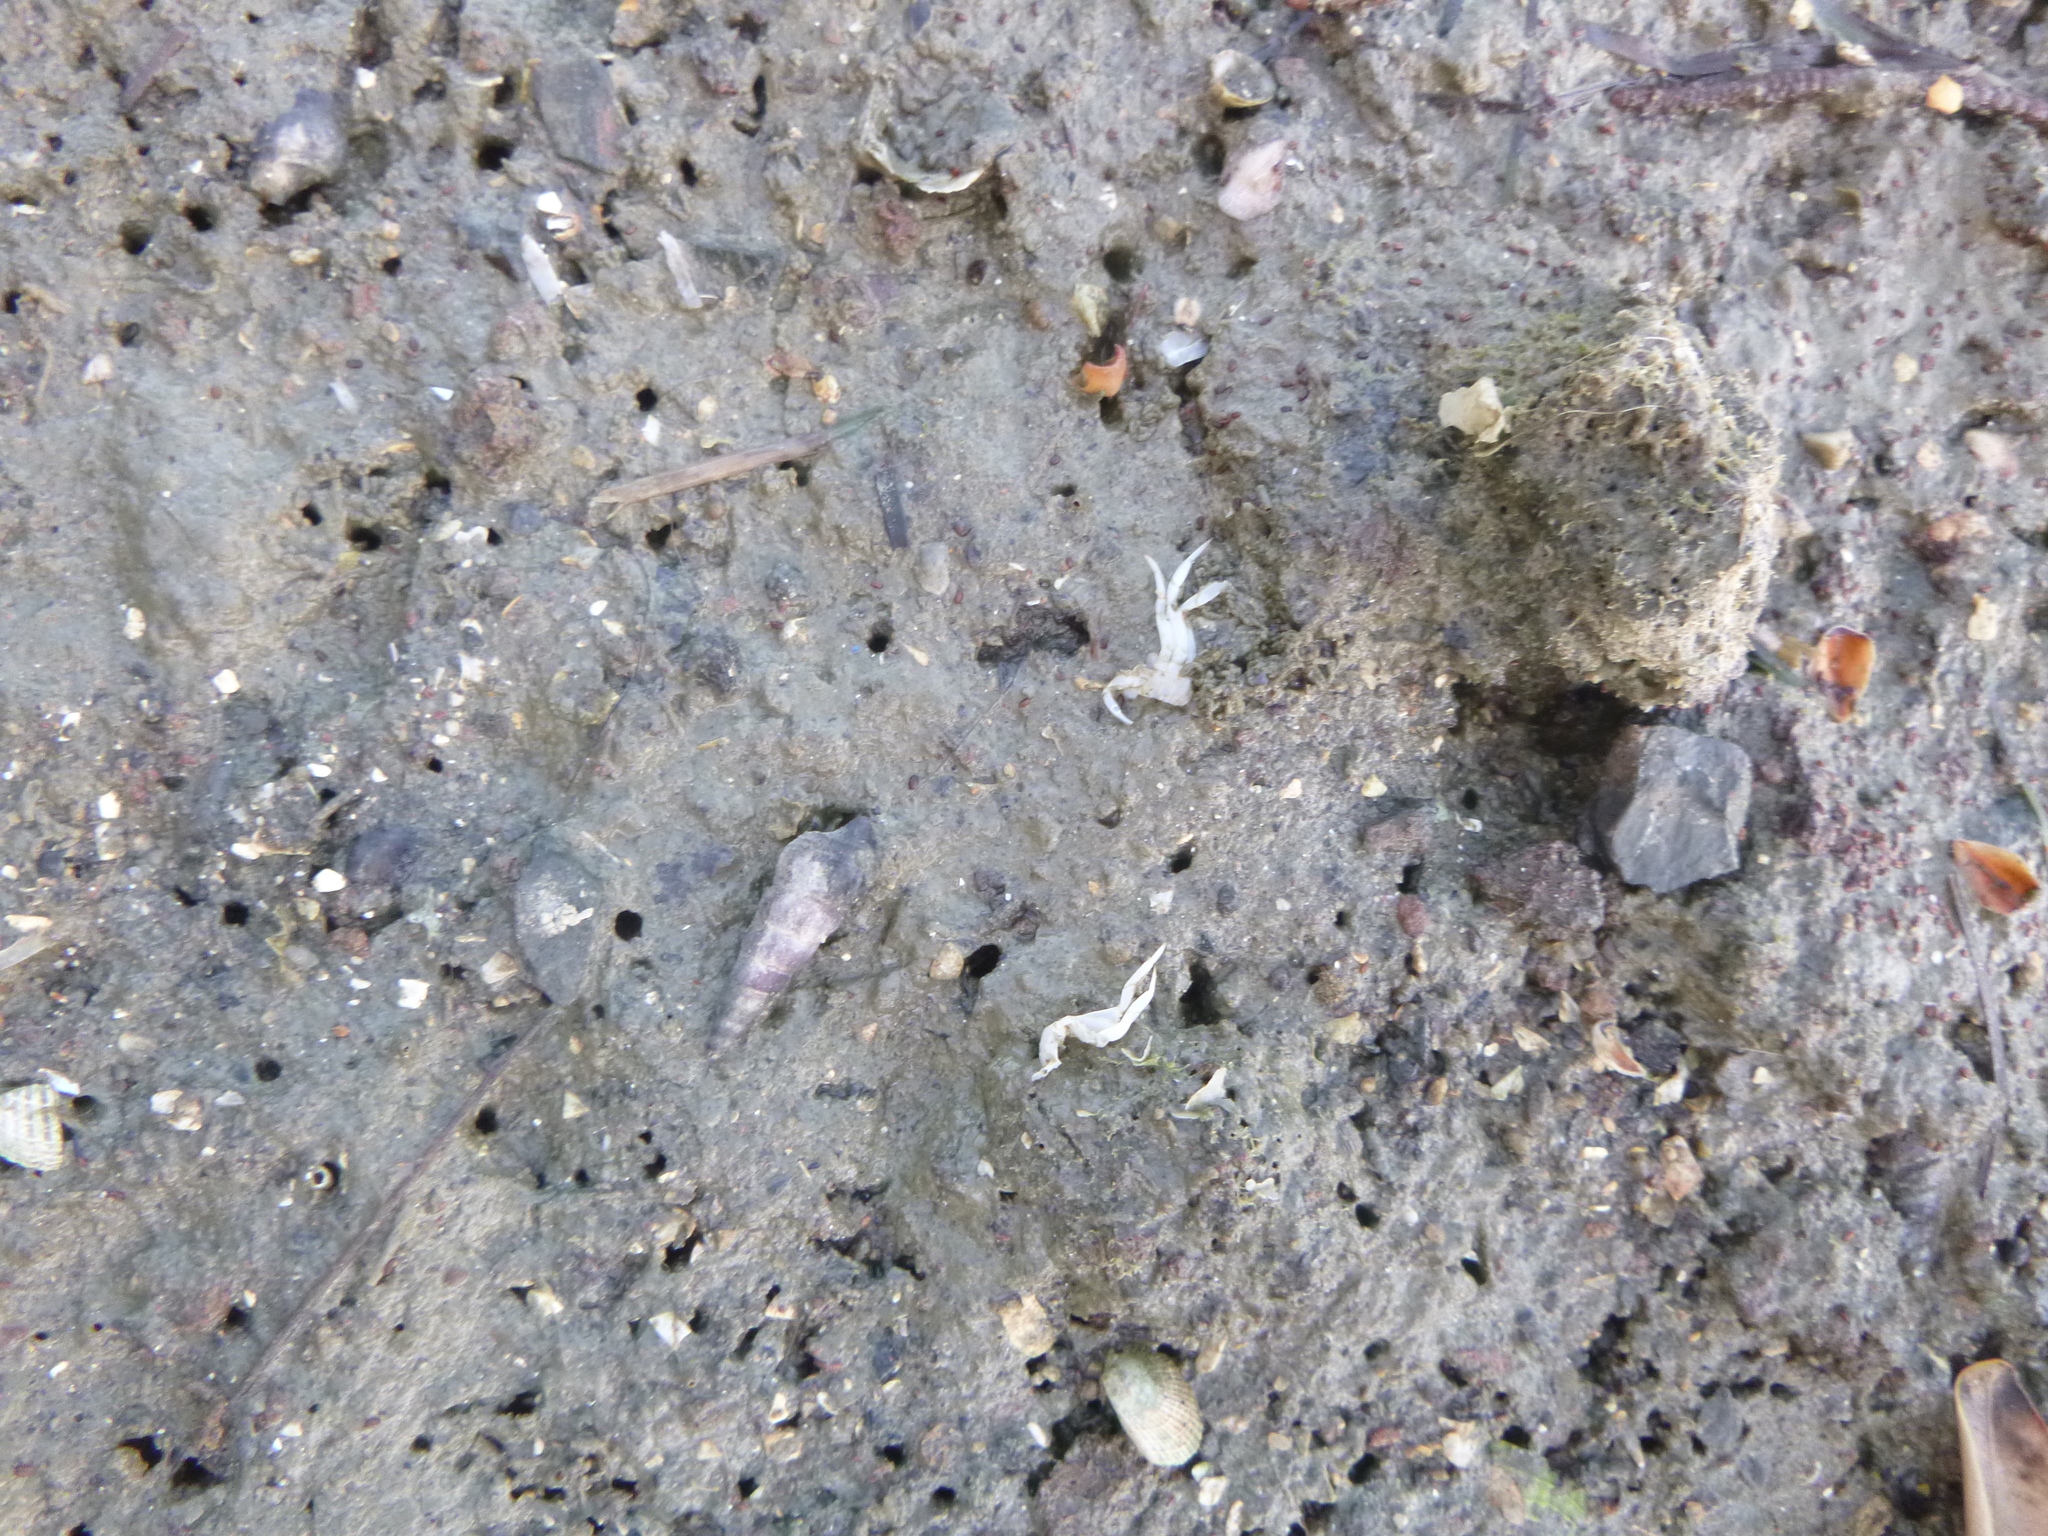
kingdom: Animalia
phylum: Mollusca
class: Gastropoda
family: Batillariidae
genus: Zeacumantus
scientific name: Zeacumantus lutulentus
